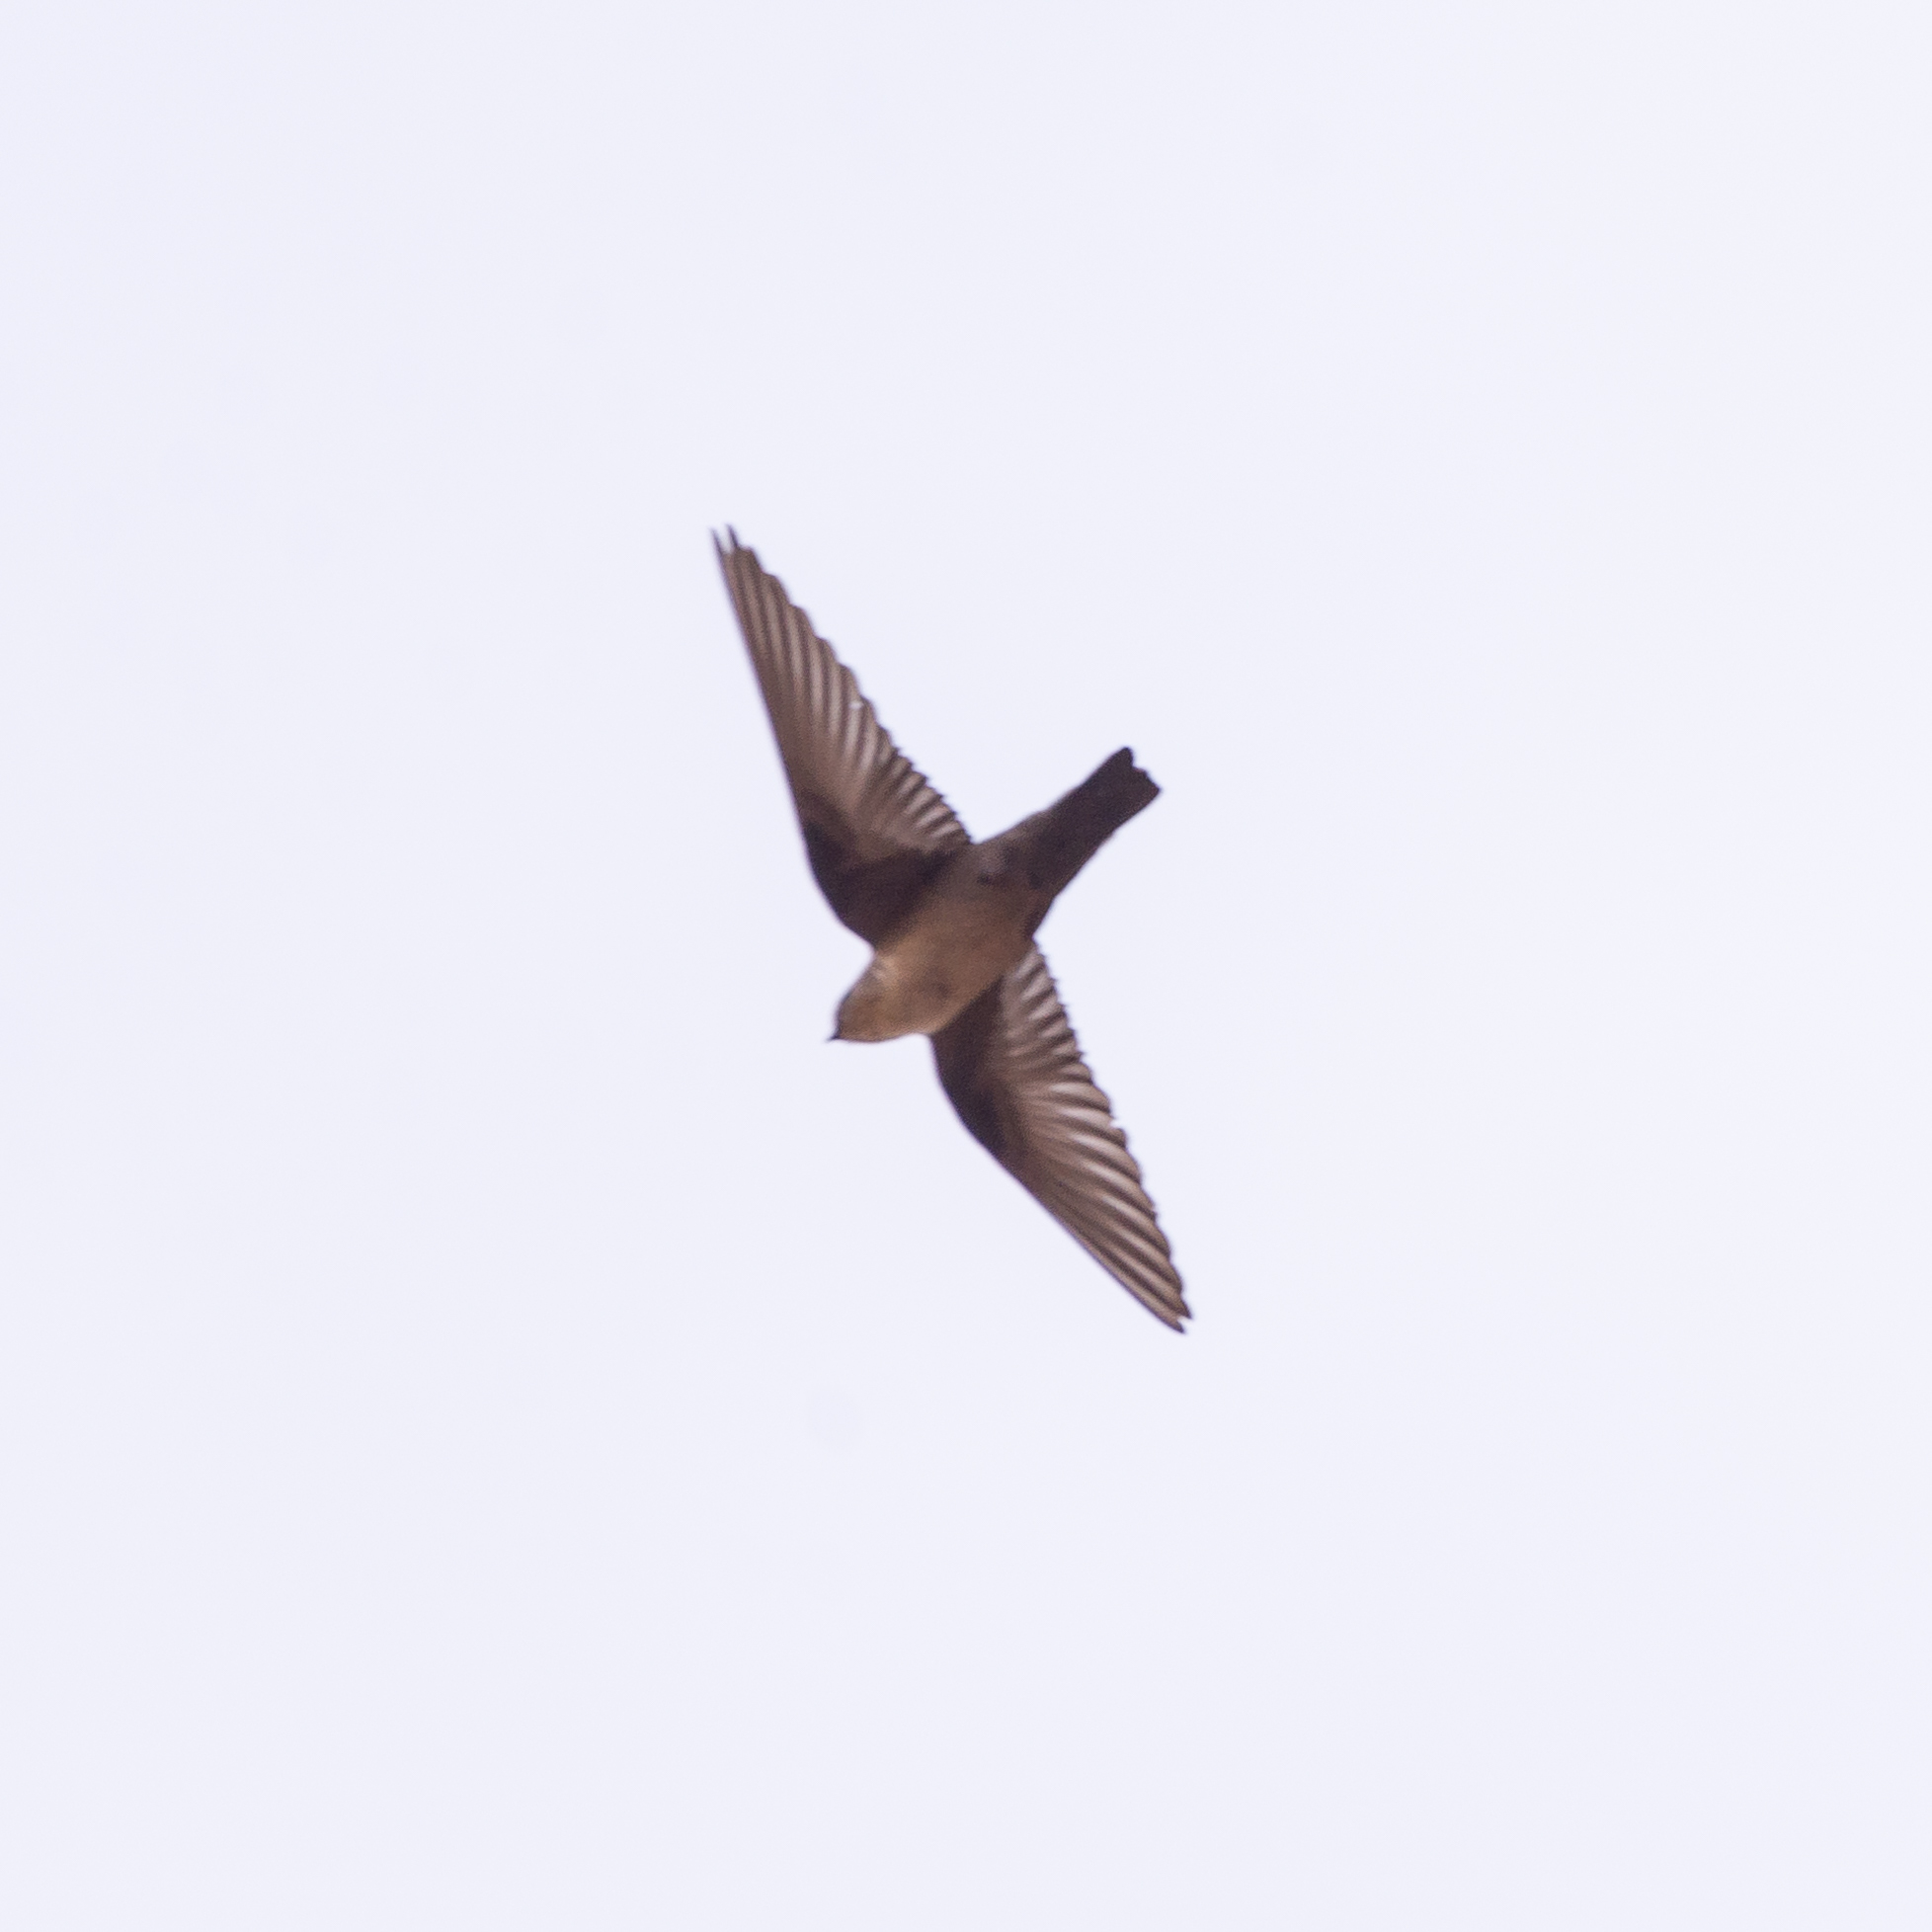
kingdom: Animalia
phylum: Chordata
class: Aves
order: Passeriformes
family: Hirundinidae
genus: Ptyonoprogne
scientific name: Ptyonoprogne rupestris
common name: Eurasian crag martin
